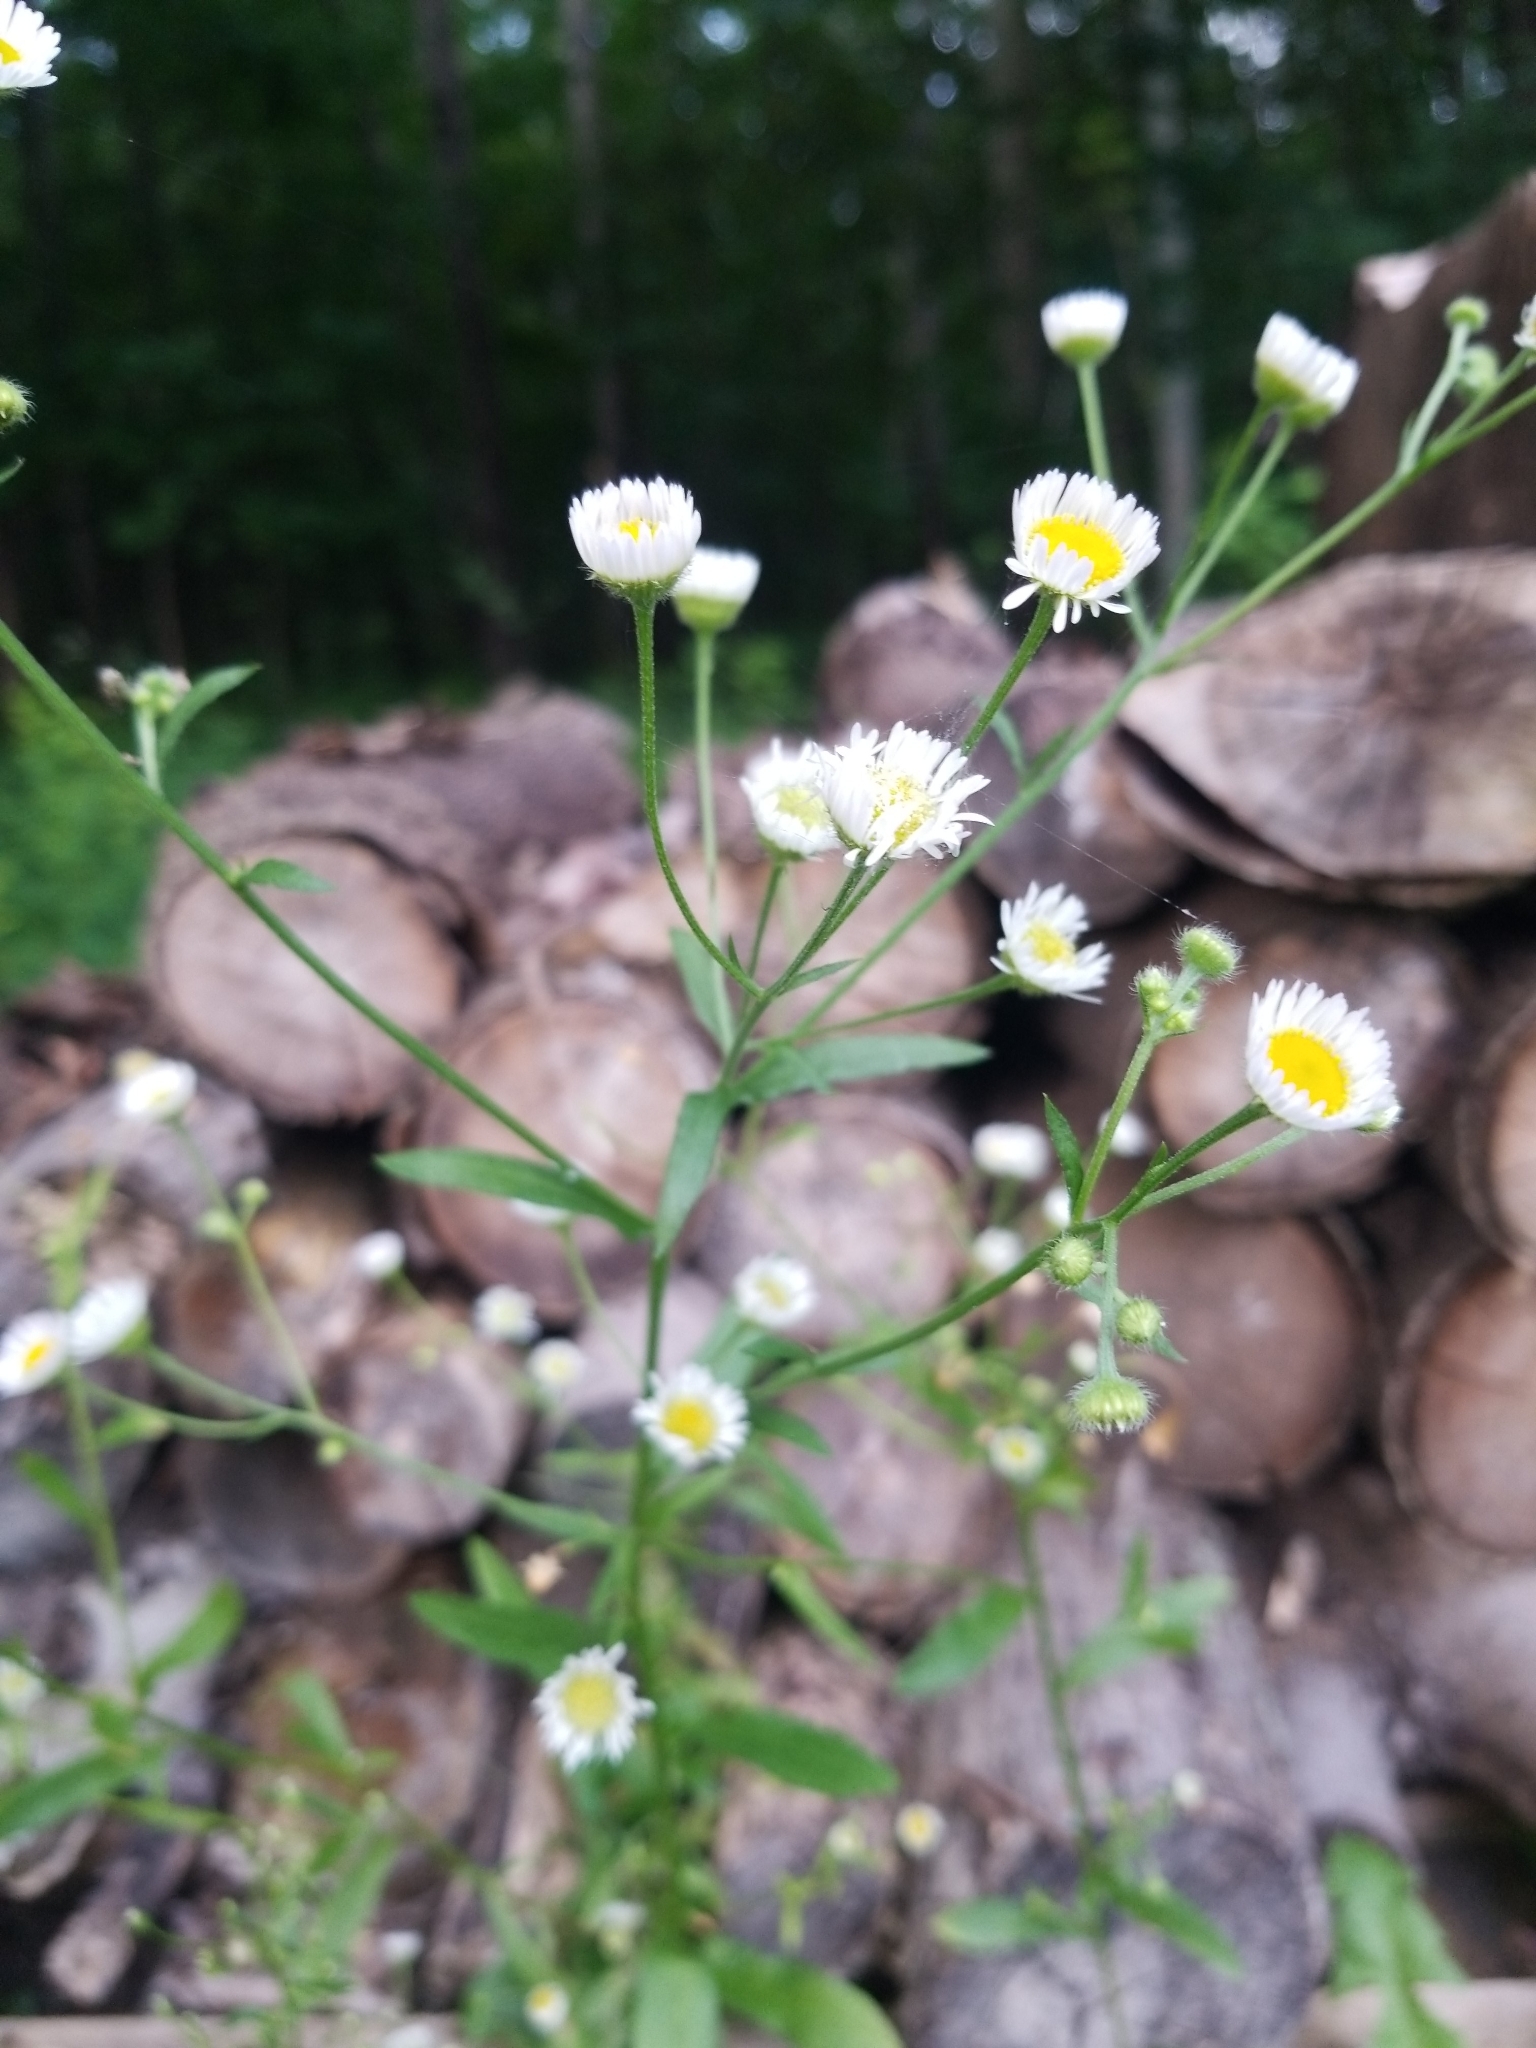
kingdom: Plantae
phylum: Tracheophyta
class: Magnoliopsida
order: Asterales
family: Asteraceae
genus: Erigeron
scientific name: Erigeron strigosus
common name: Common eastern fleabane
